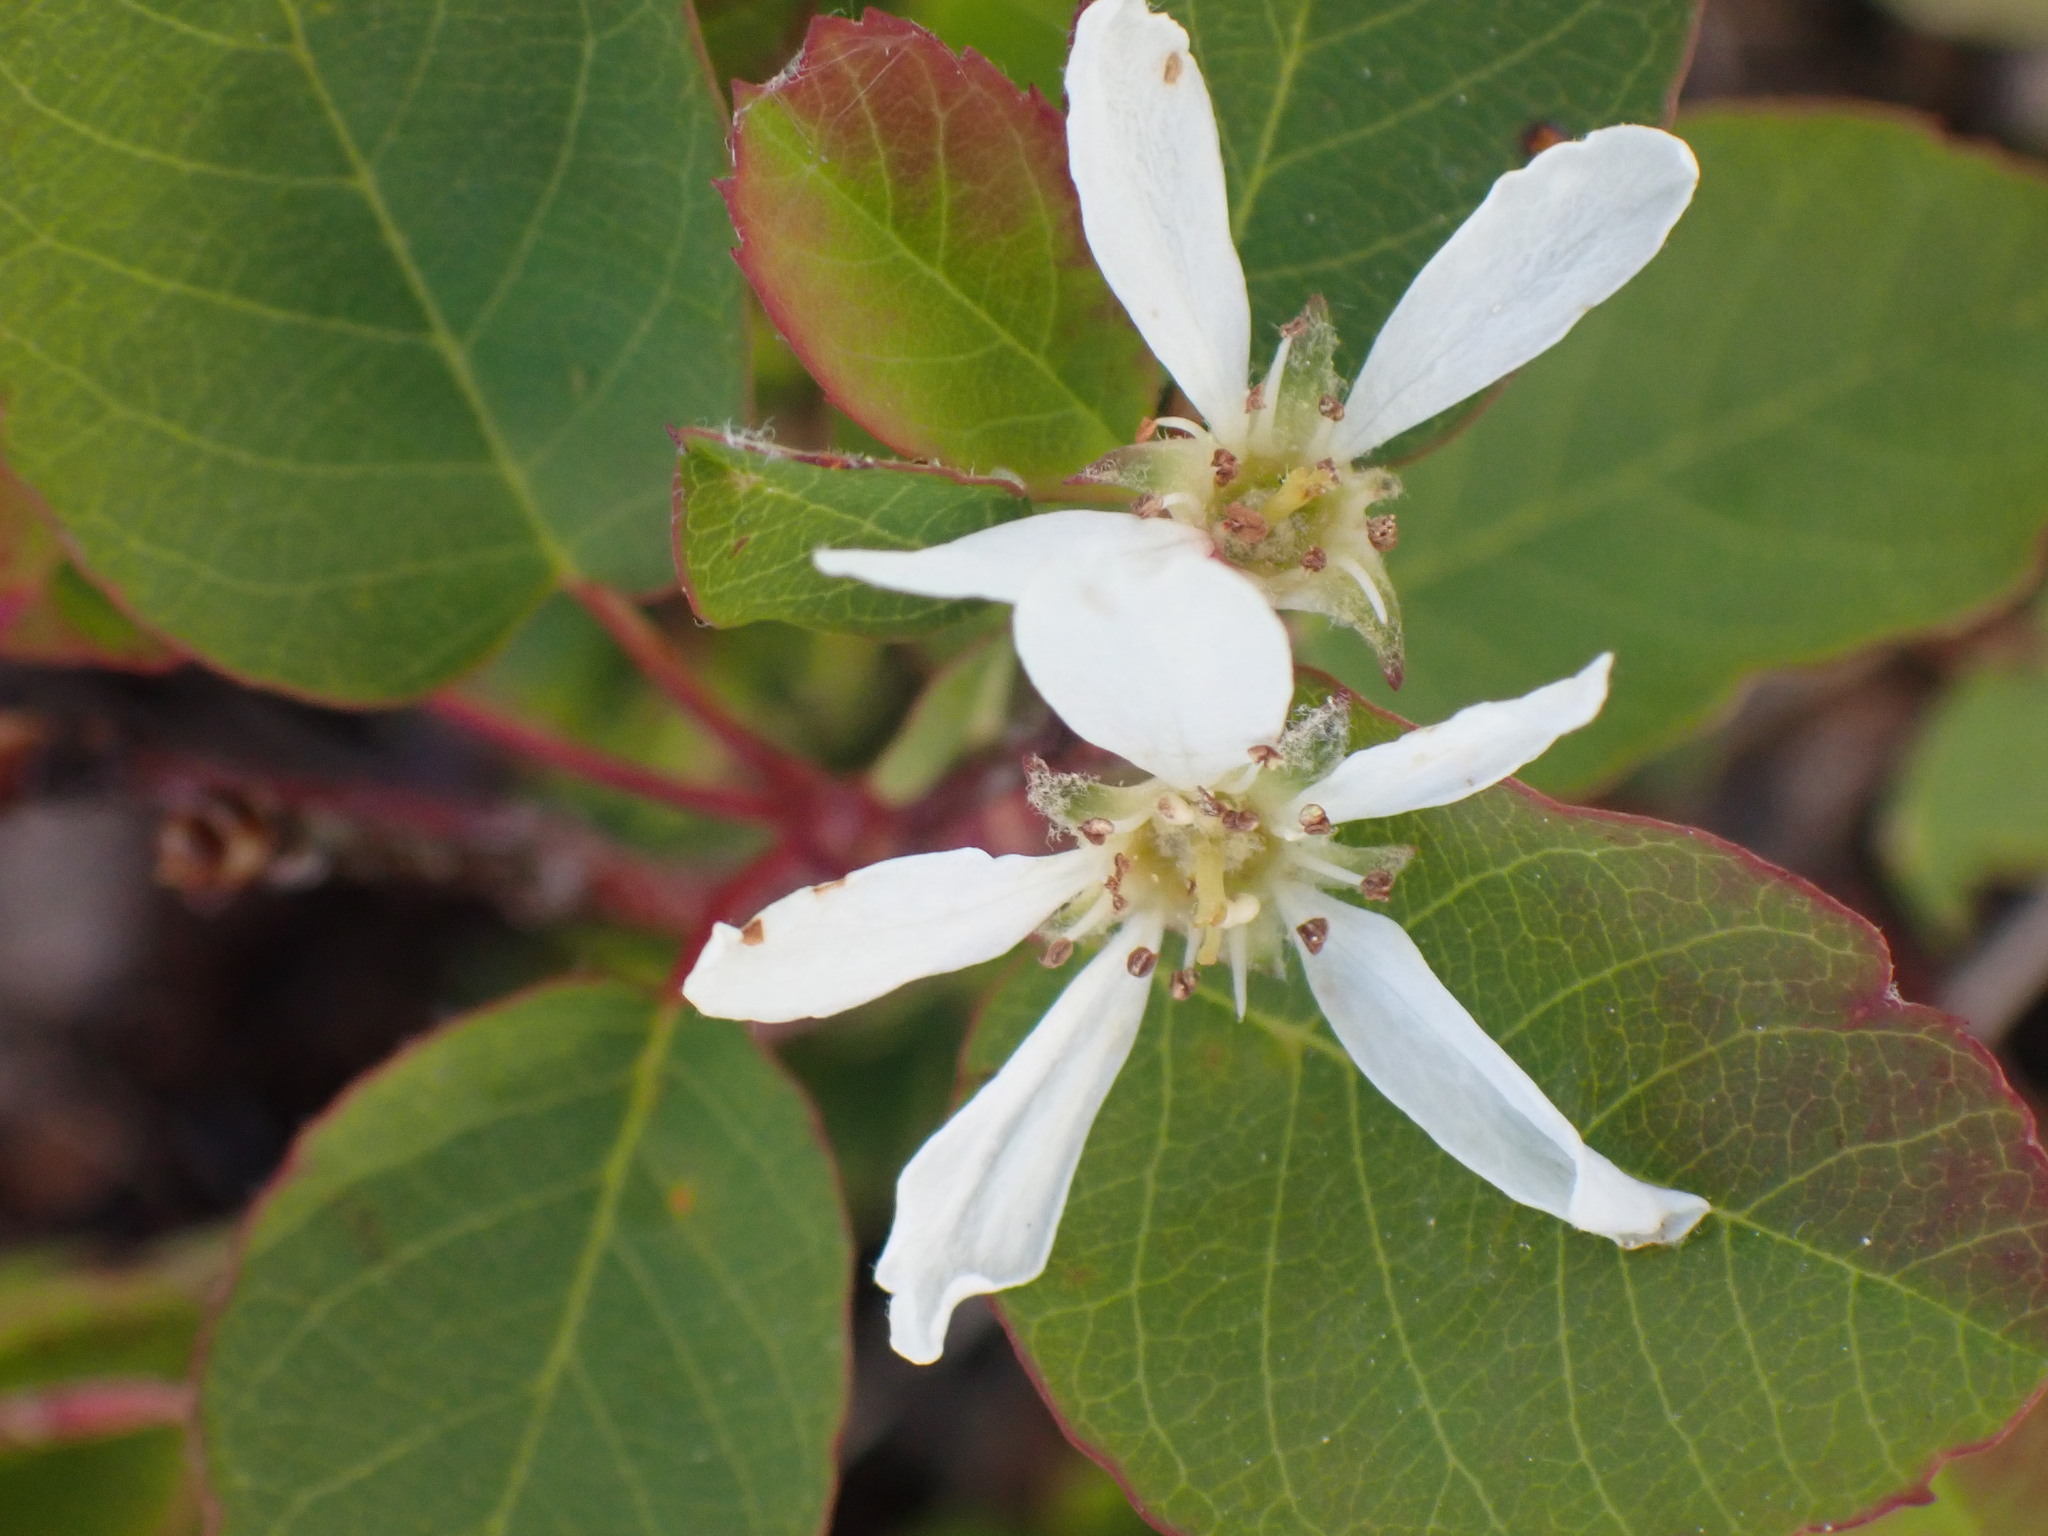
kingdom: Plantae
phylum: Tracheophyta
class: Magnoliopsida
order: Rosales
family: Rosaceae
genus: Amelanchier
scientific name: Amelanchier alnifolia
